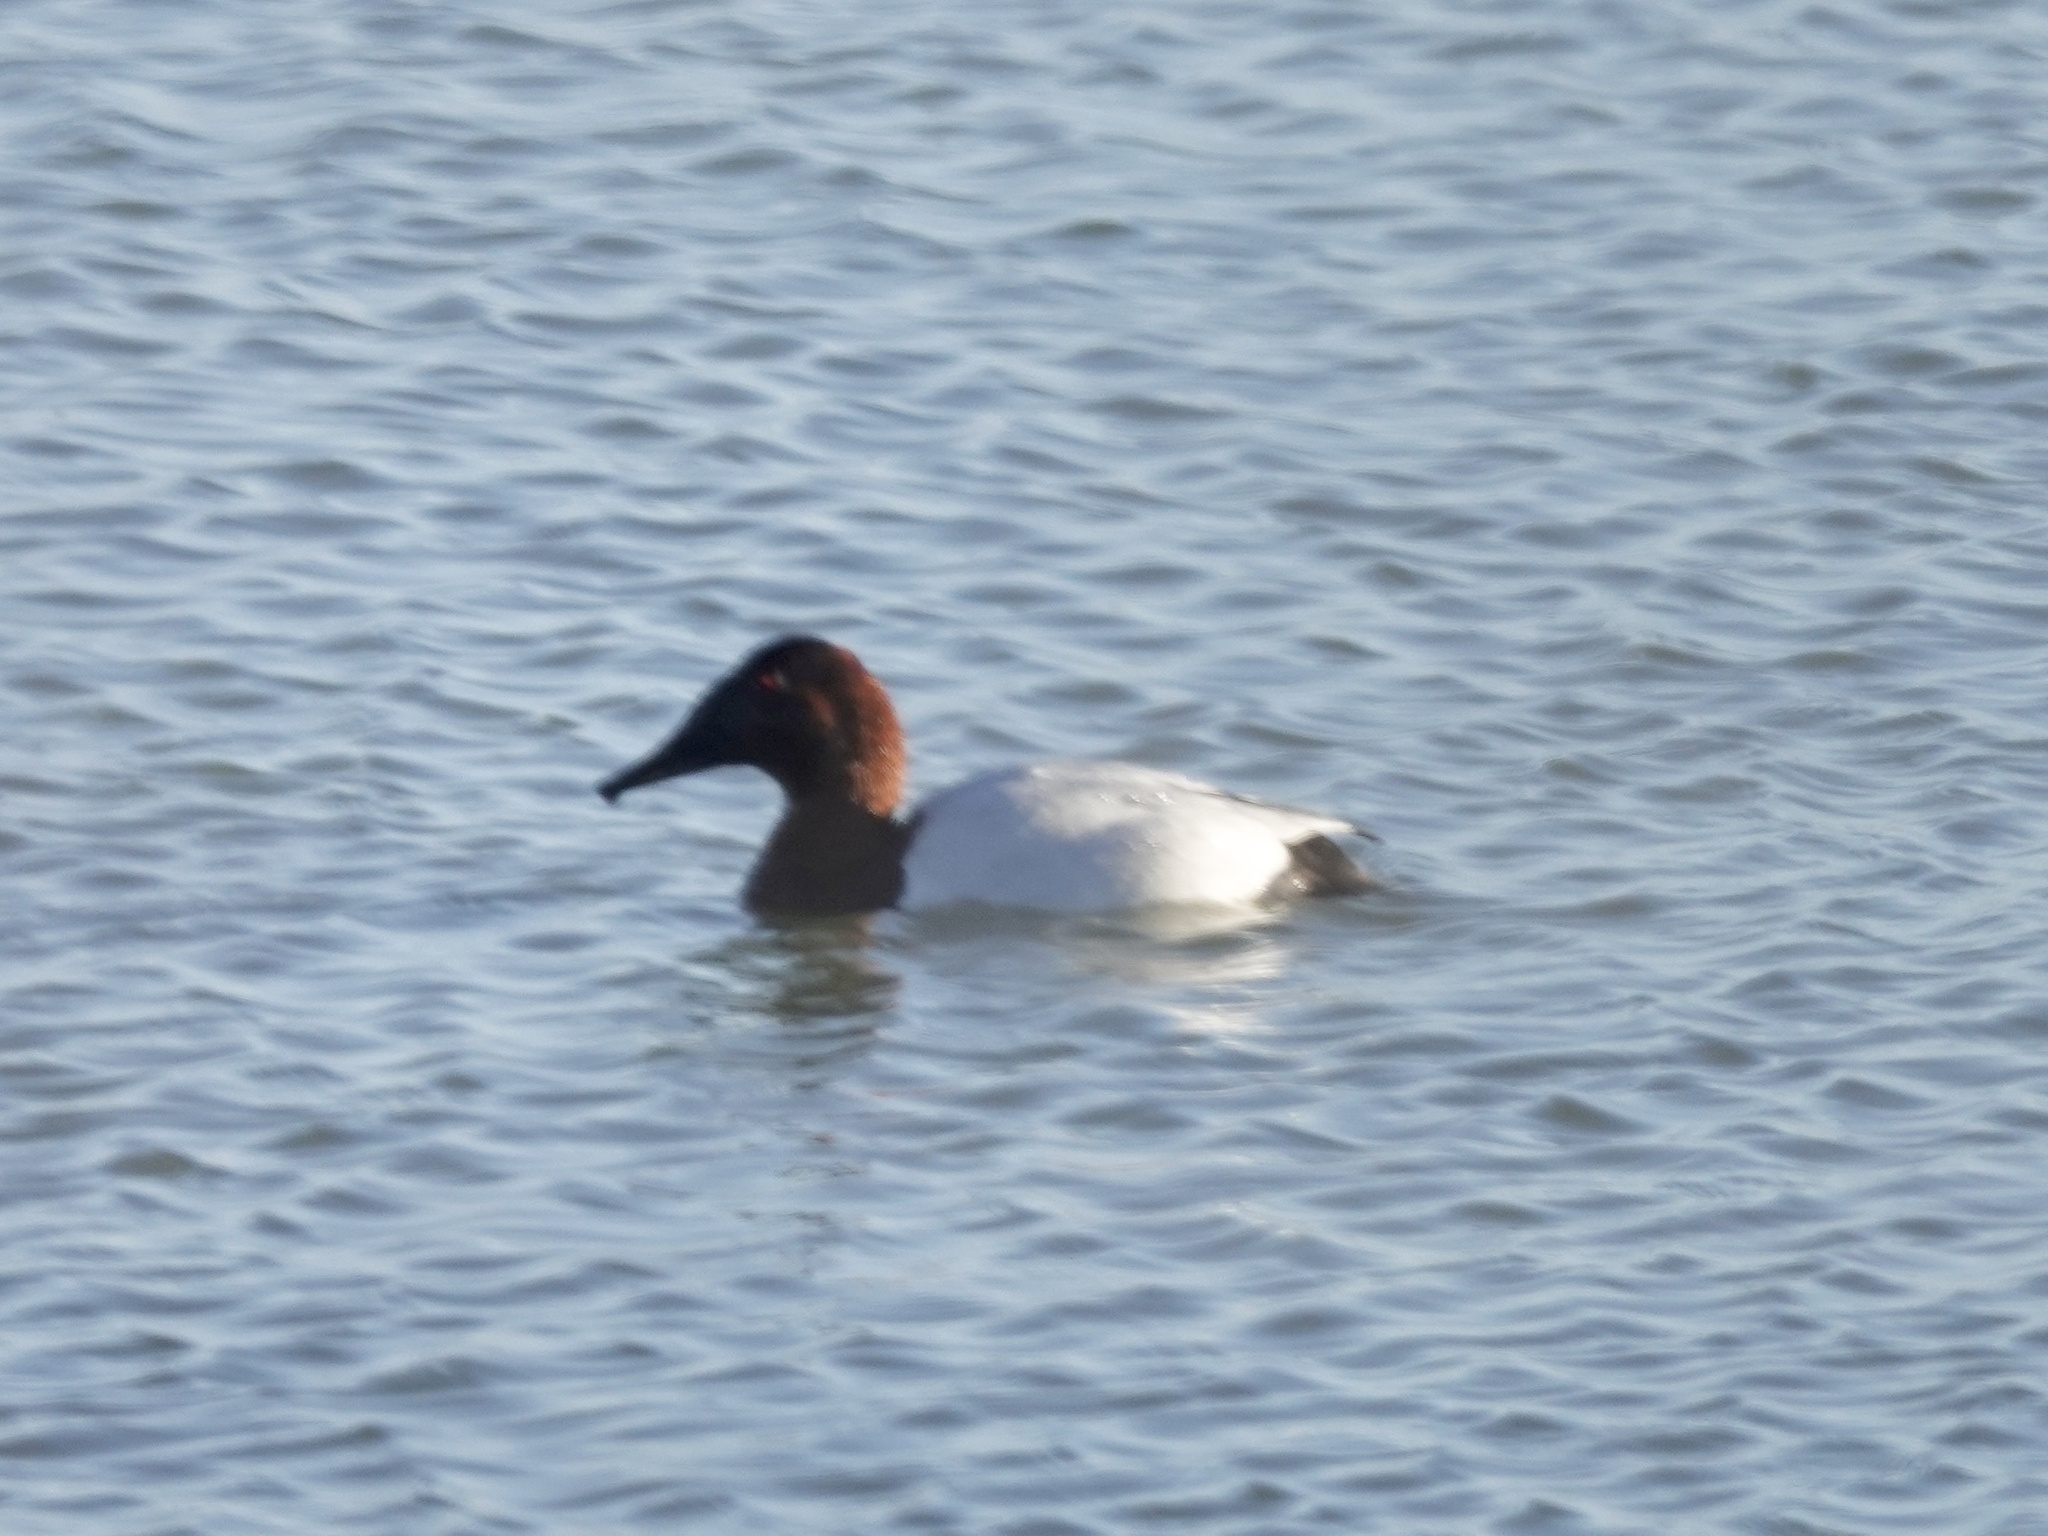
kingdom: Animalia
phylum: Chordata
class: Aves
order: Anseriformes
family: Anatidae
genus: Aythya
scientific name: Aythya valisineria
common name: Canvasback
